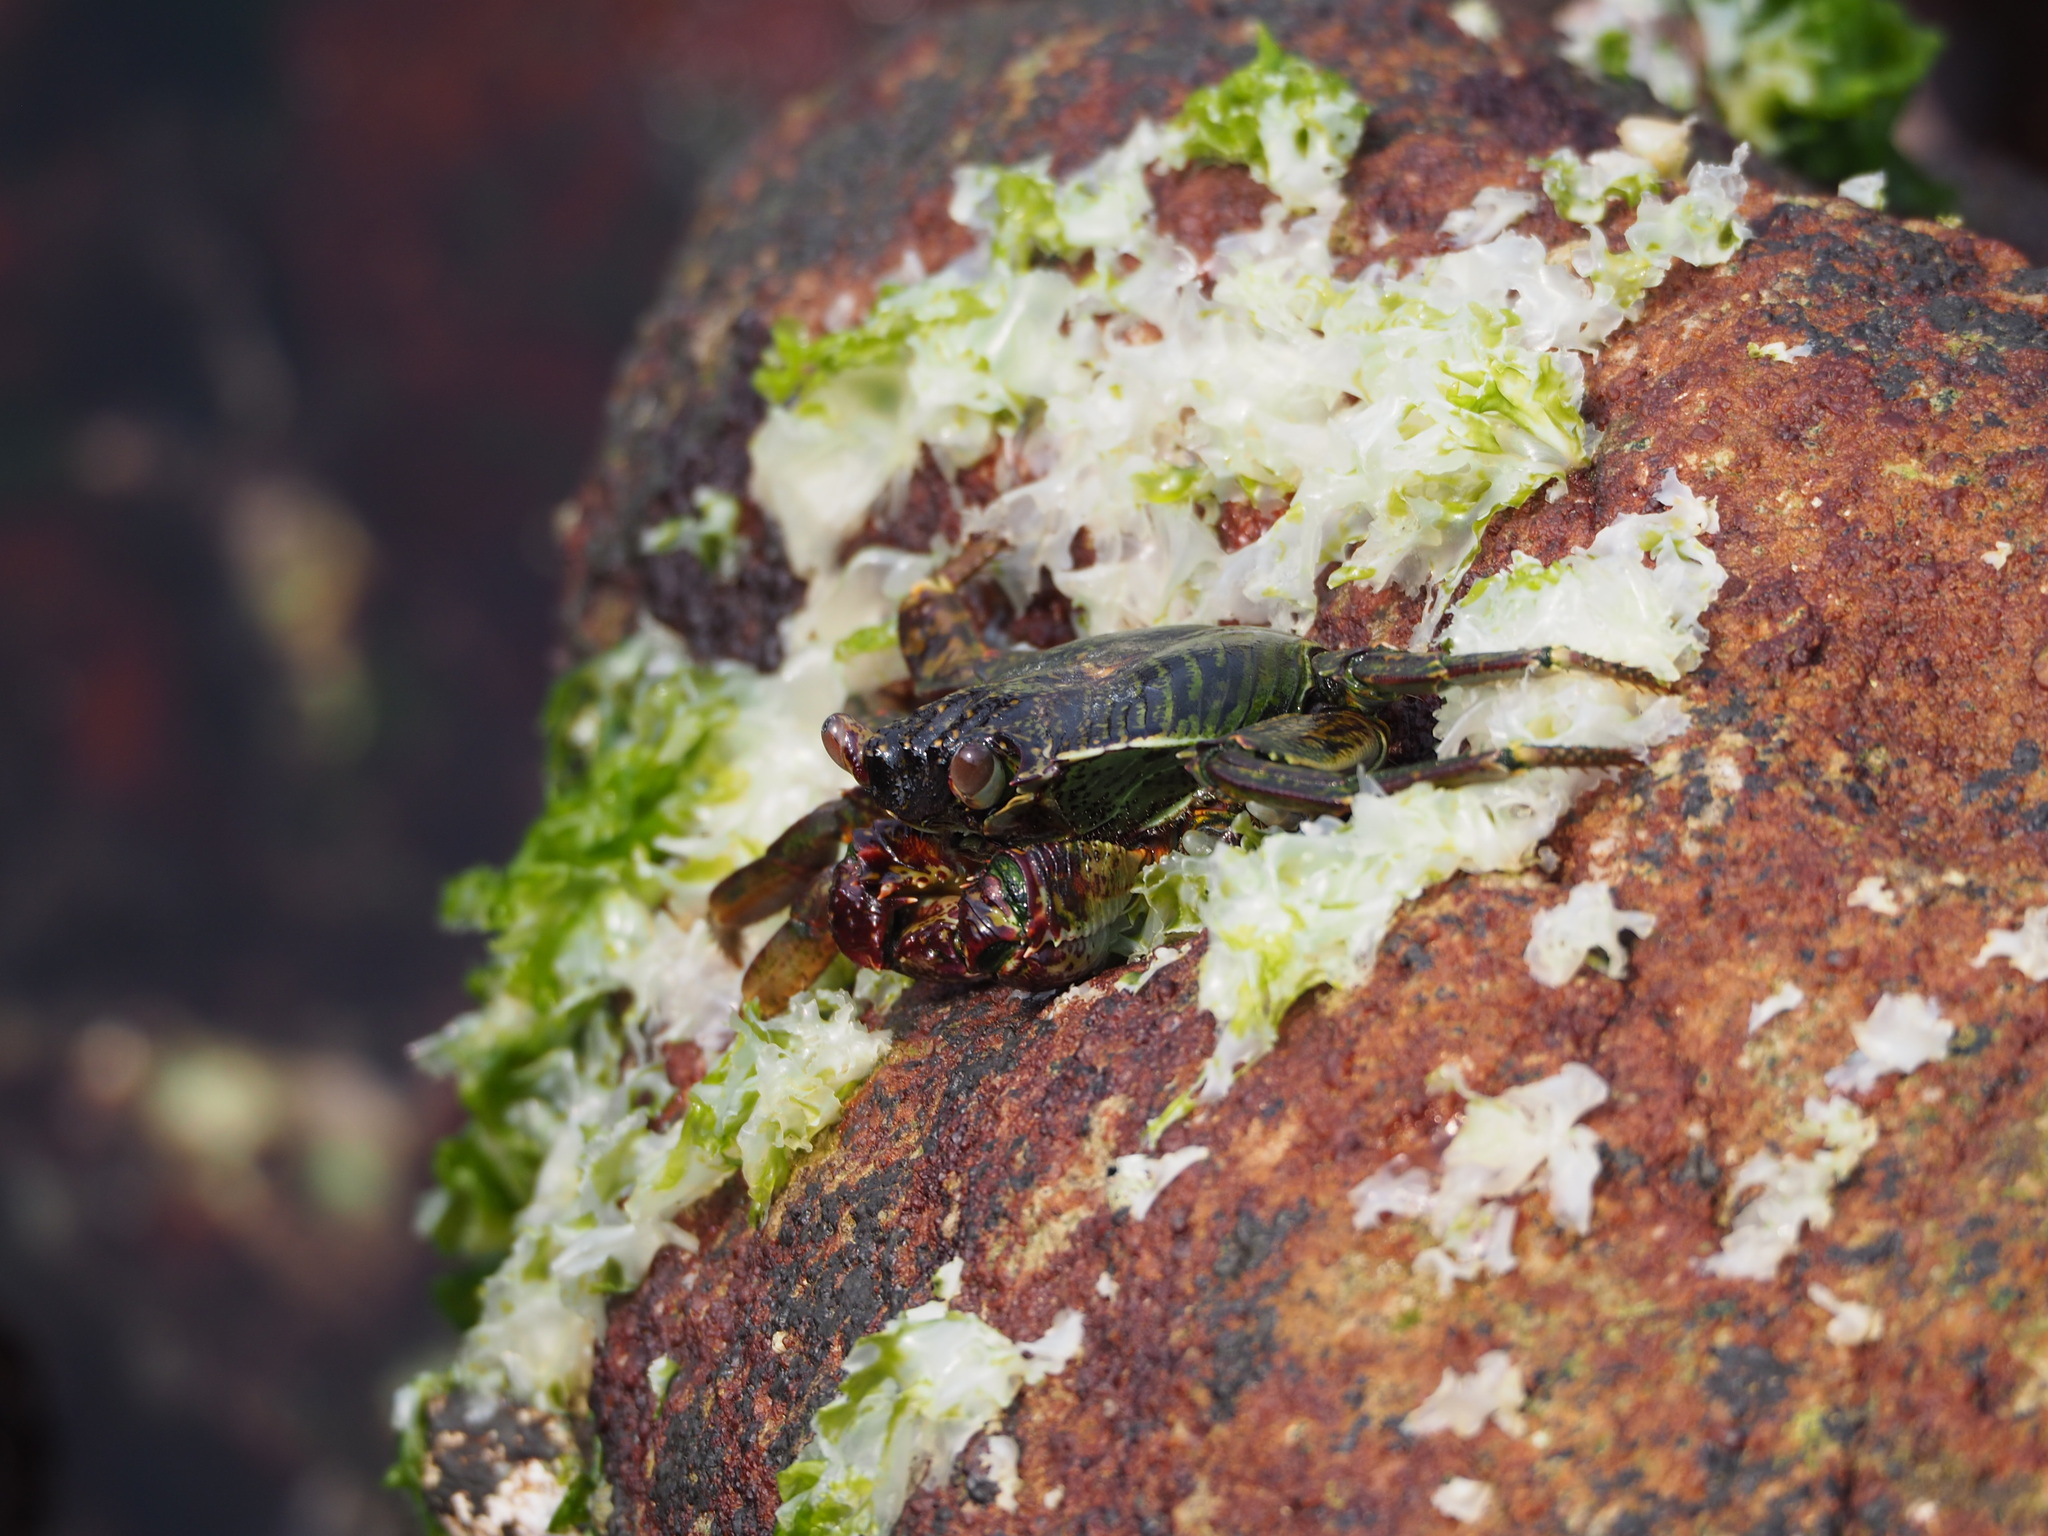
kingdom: Animalia
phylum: Arthropoda
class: Malacostraca
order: Decapoda
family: Grapsidae
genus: Grapsus
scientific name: Grapsus albolineatus
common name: Mottled lightfoot crab
